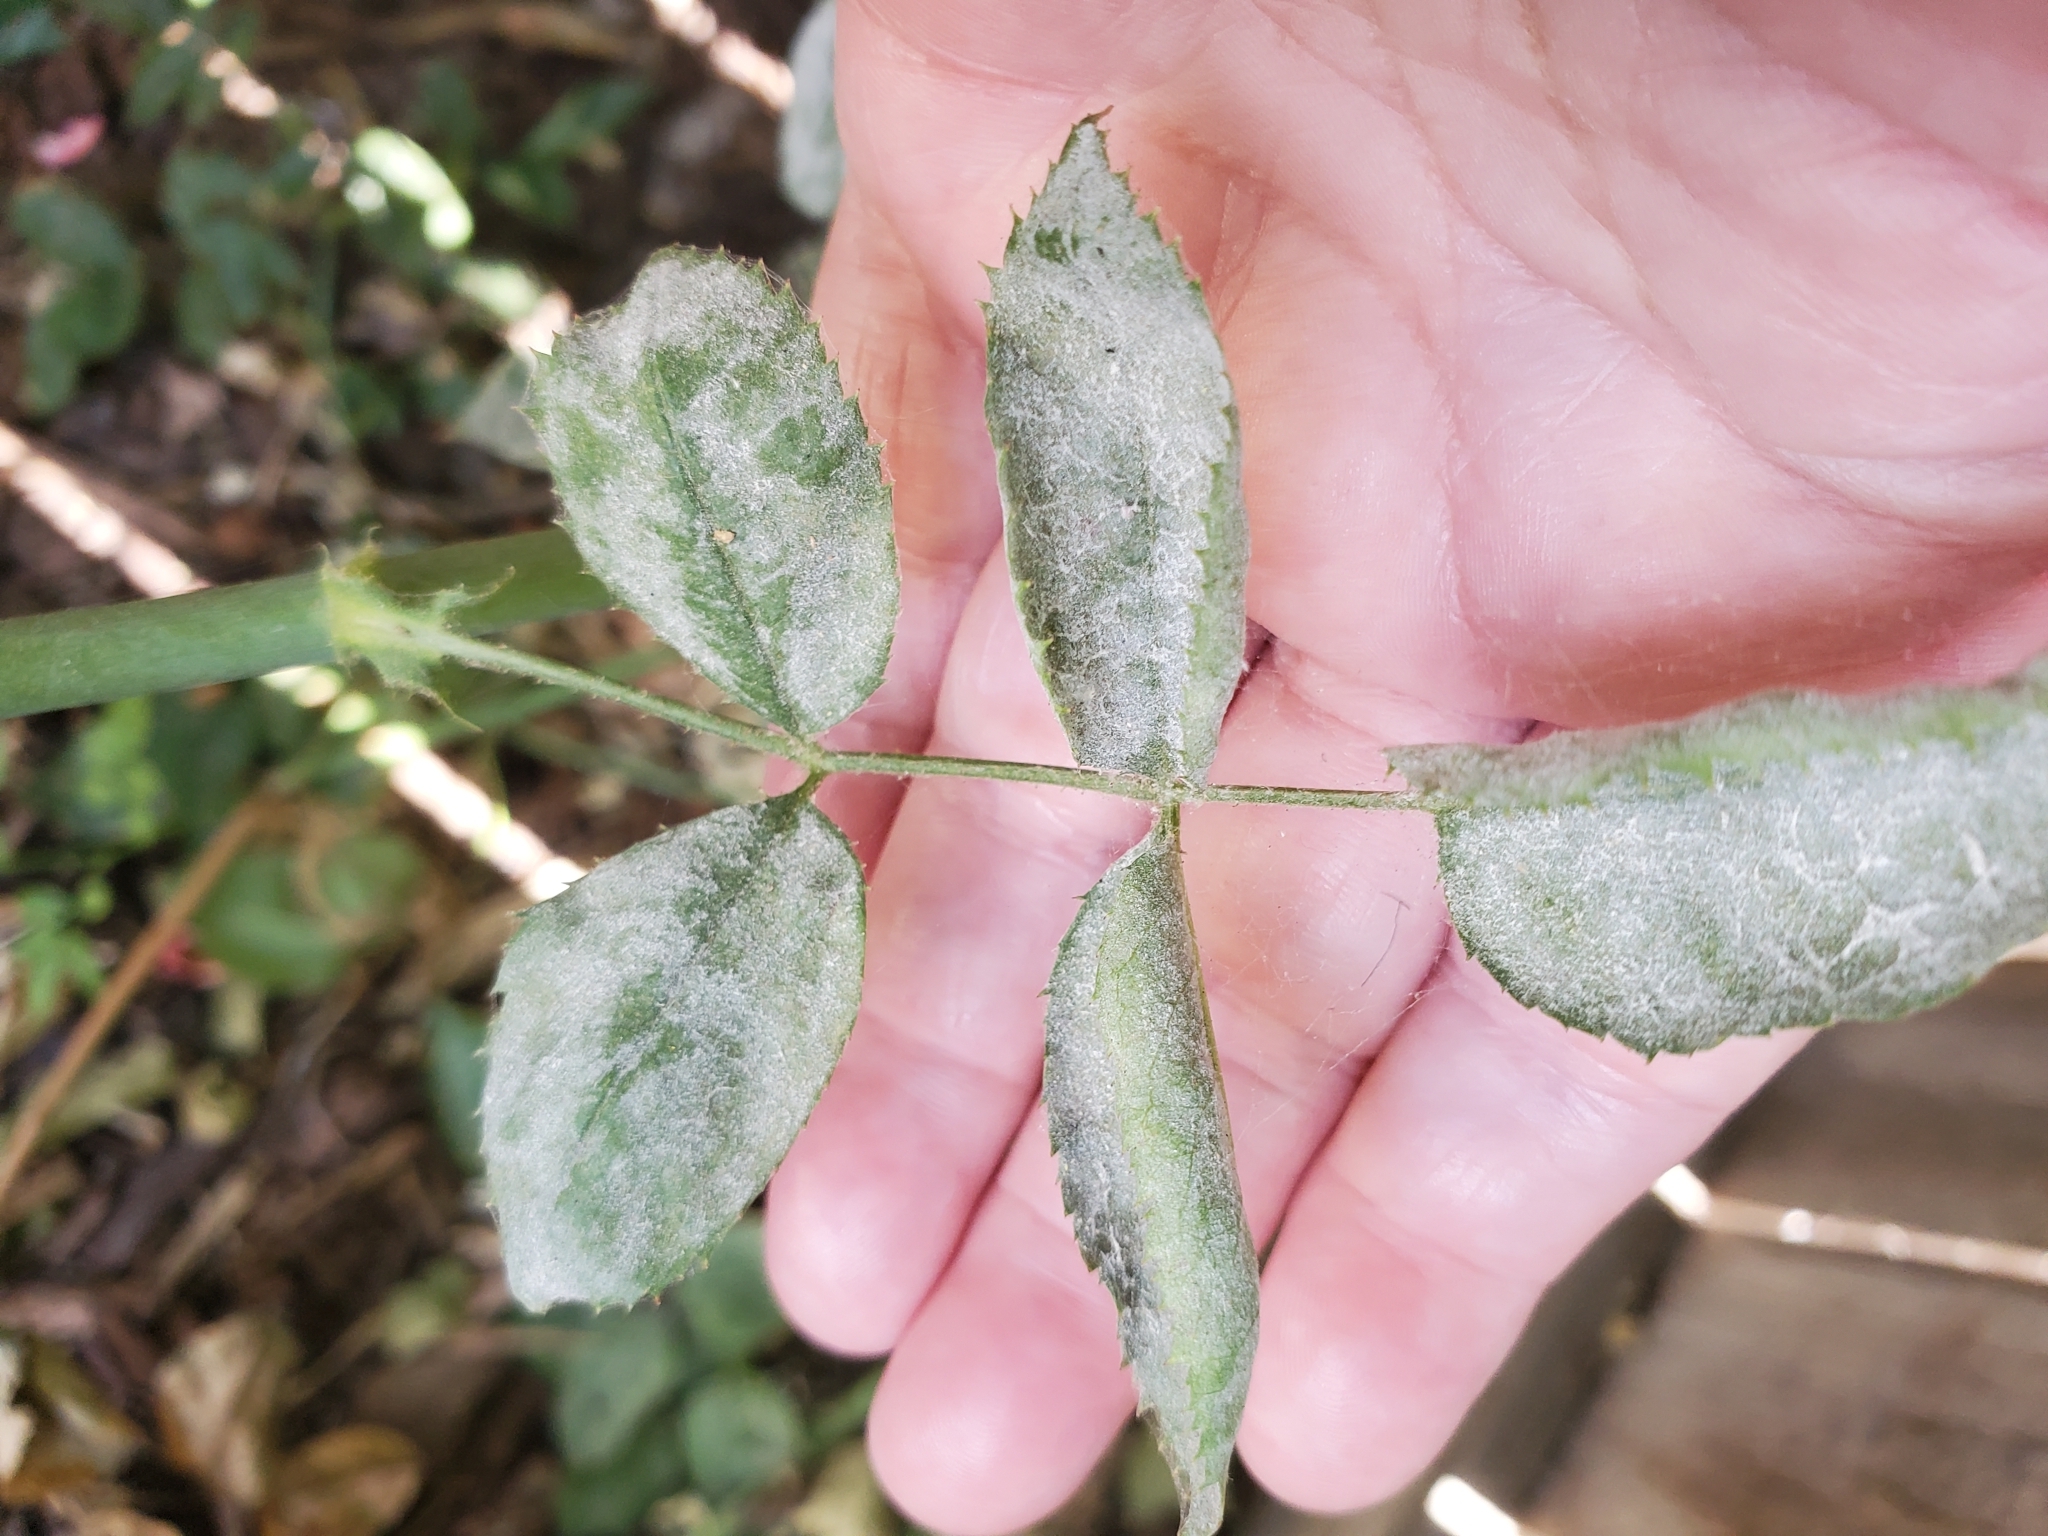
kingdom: Fungi
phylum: Ascomycota
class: Leotiomycetes
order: Helotiales
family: Erysiphaceae
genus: Podosphaera
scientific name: Podosphaera pannosa
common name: Rose mildew
